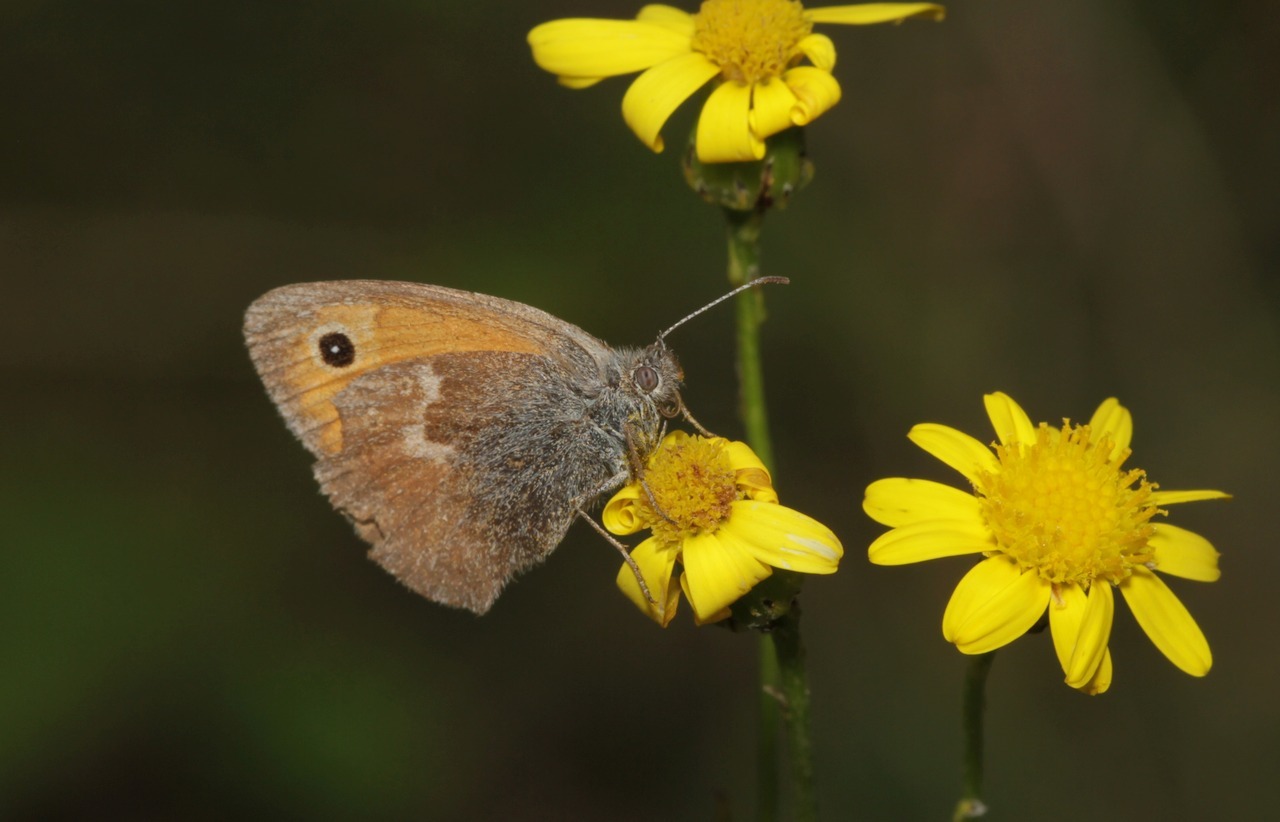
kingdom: Animalia
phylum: Arthropoda
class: Insecta
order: Lepidoptera
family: Nymphalidae
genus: Coenonympha
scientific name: Coenonympha pamphilus
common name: Small heath
